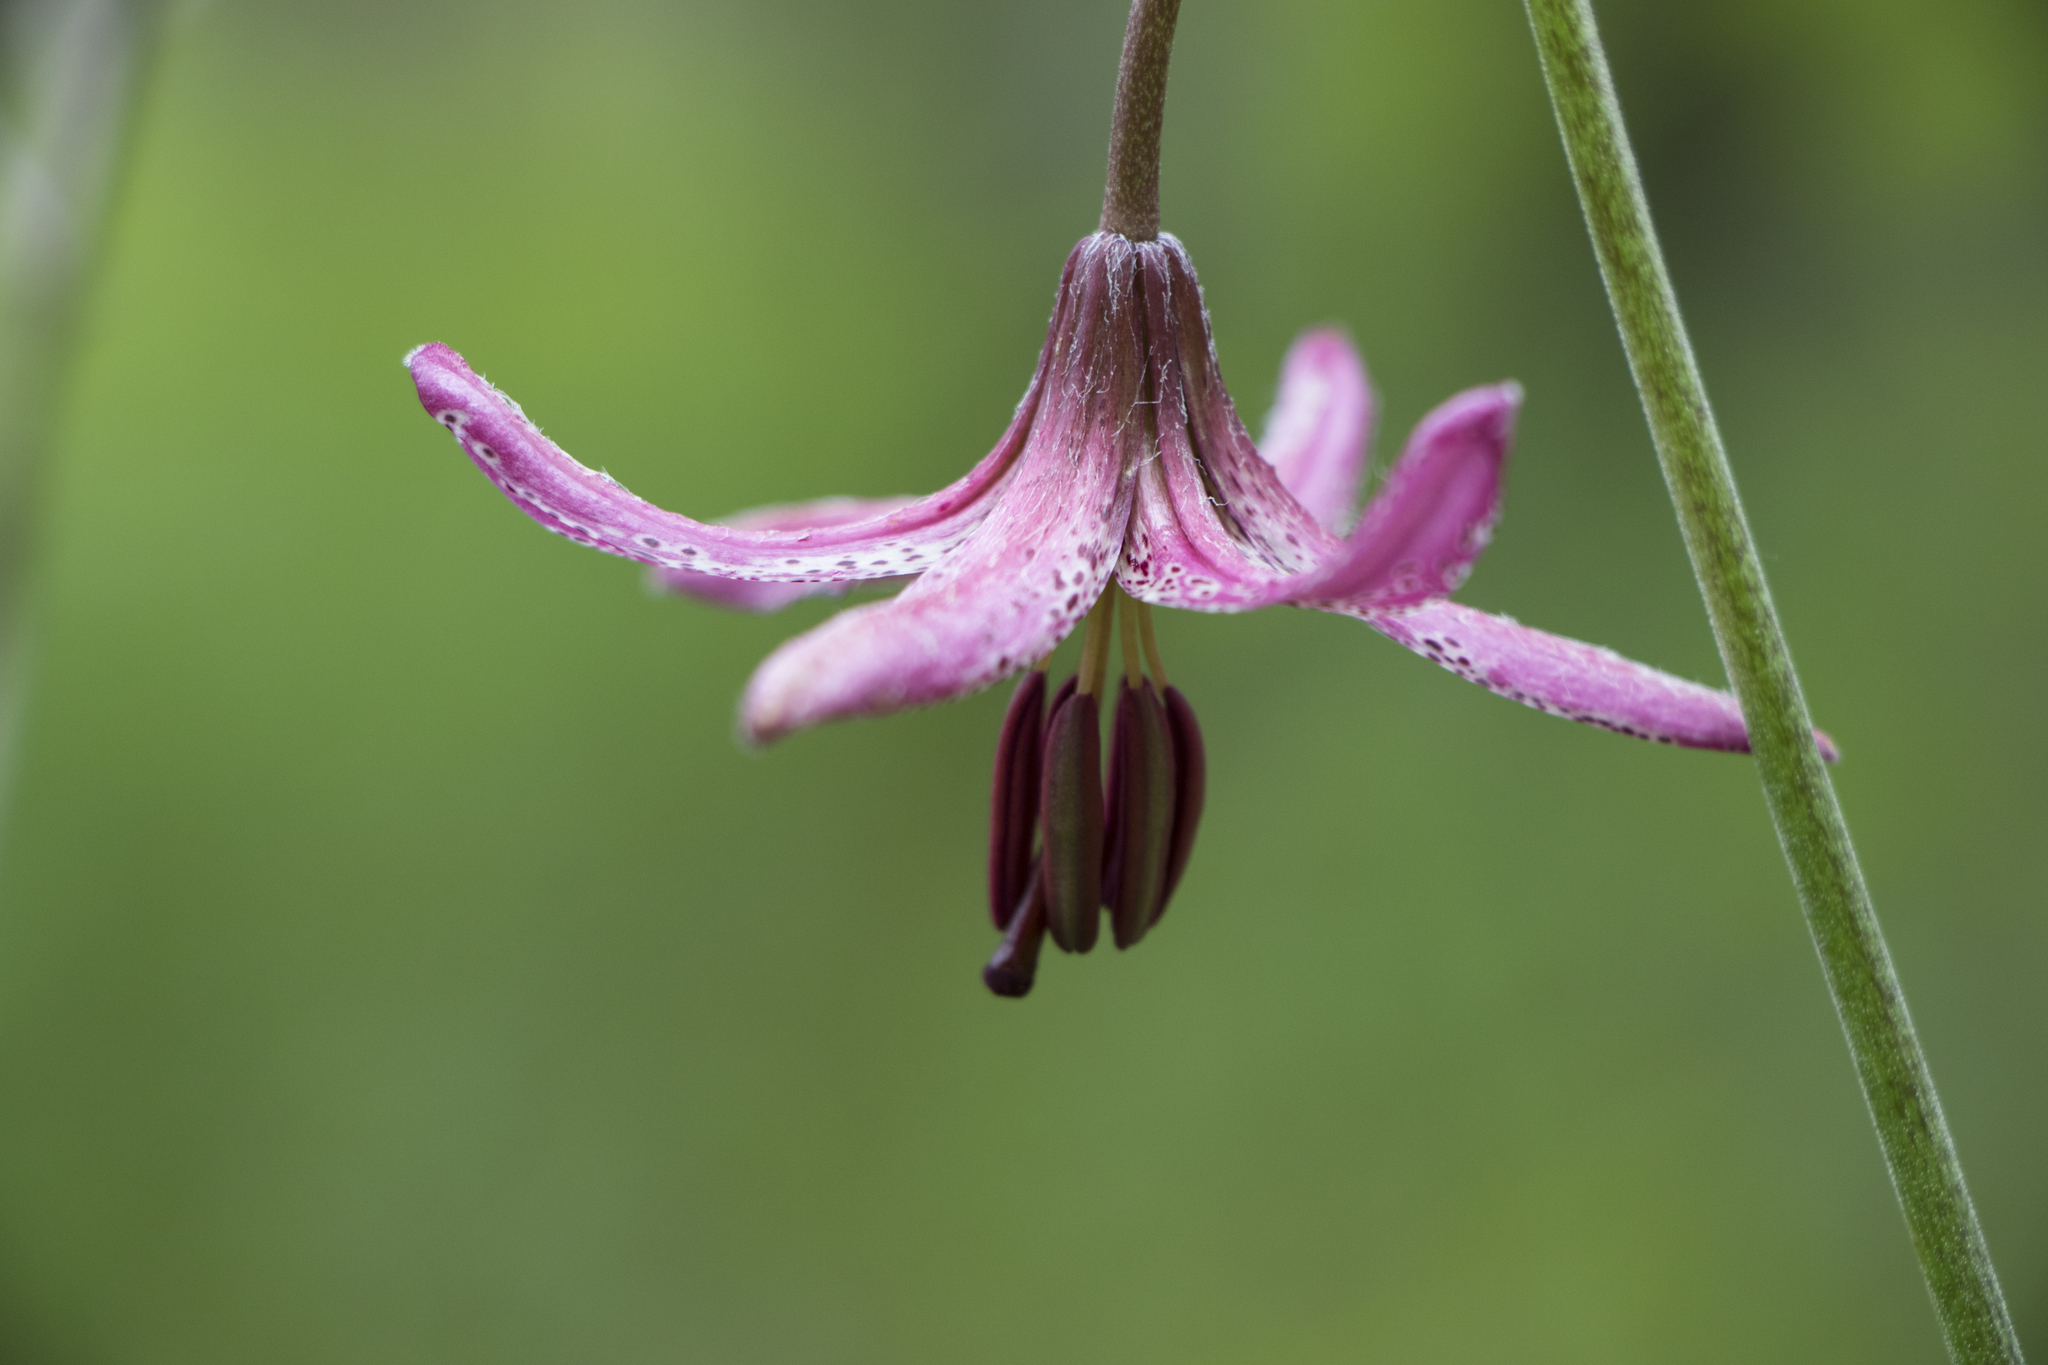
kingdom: Plantae
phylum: Tracheophyta
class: Liliopsida
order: Liliales
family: Liliaceae
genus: Lilium
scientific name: Lilium martagon
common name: Martagon lily
